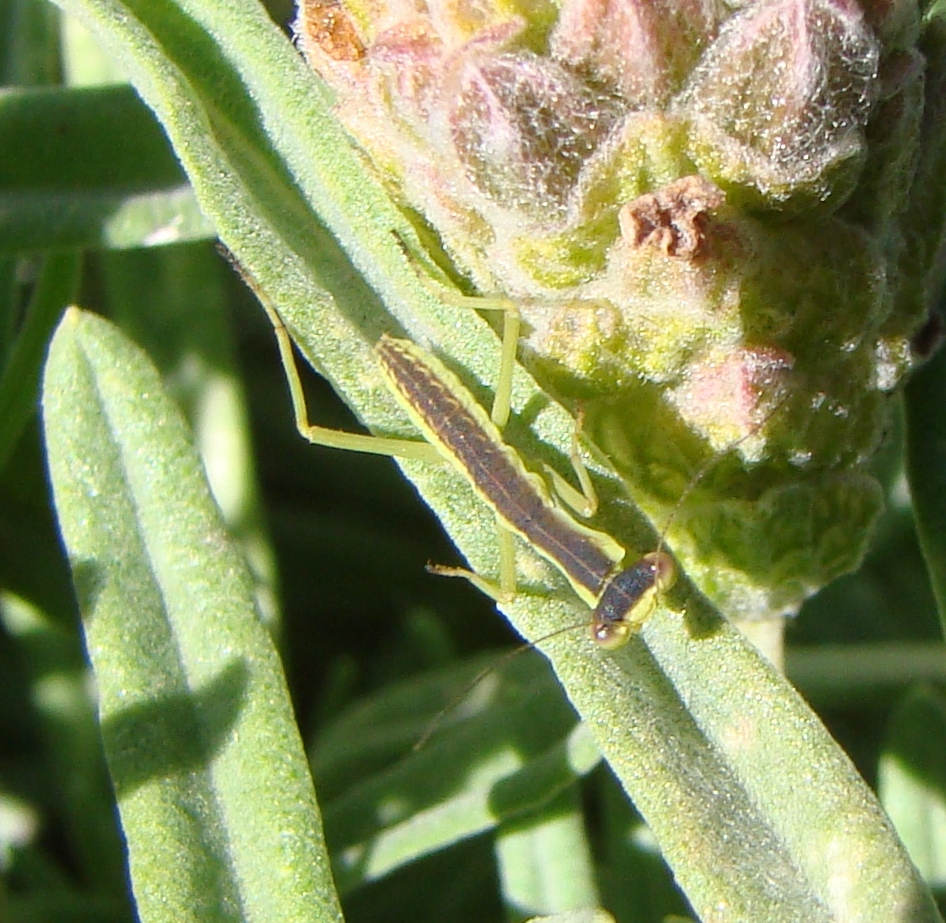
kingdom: Animalia
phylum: Arthropoda
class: Insecta
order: Mantodea
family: Mantidae
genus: Orthodera
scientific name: Orthodera novaezealandiae
